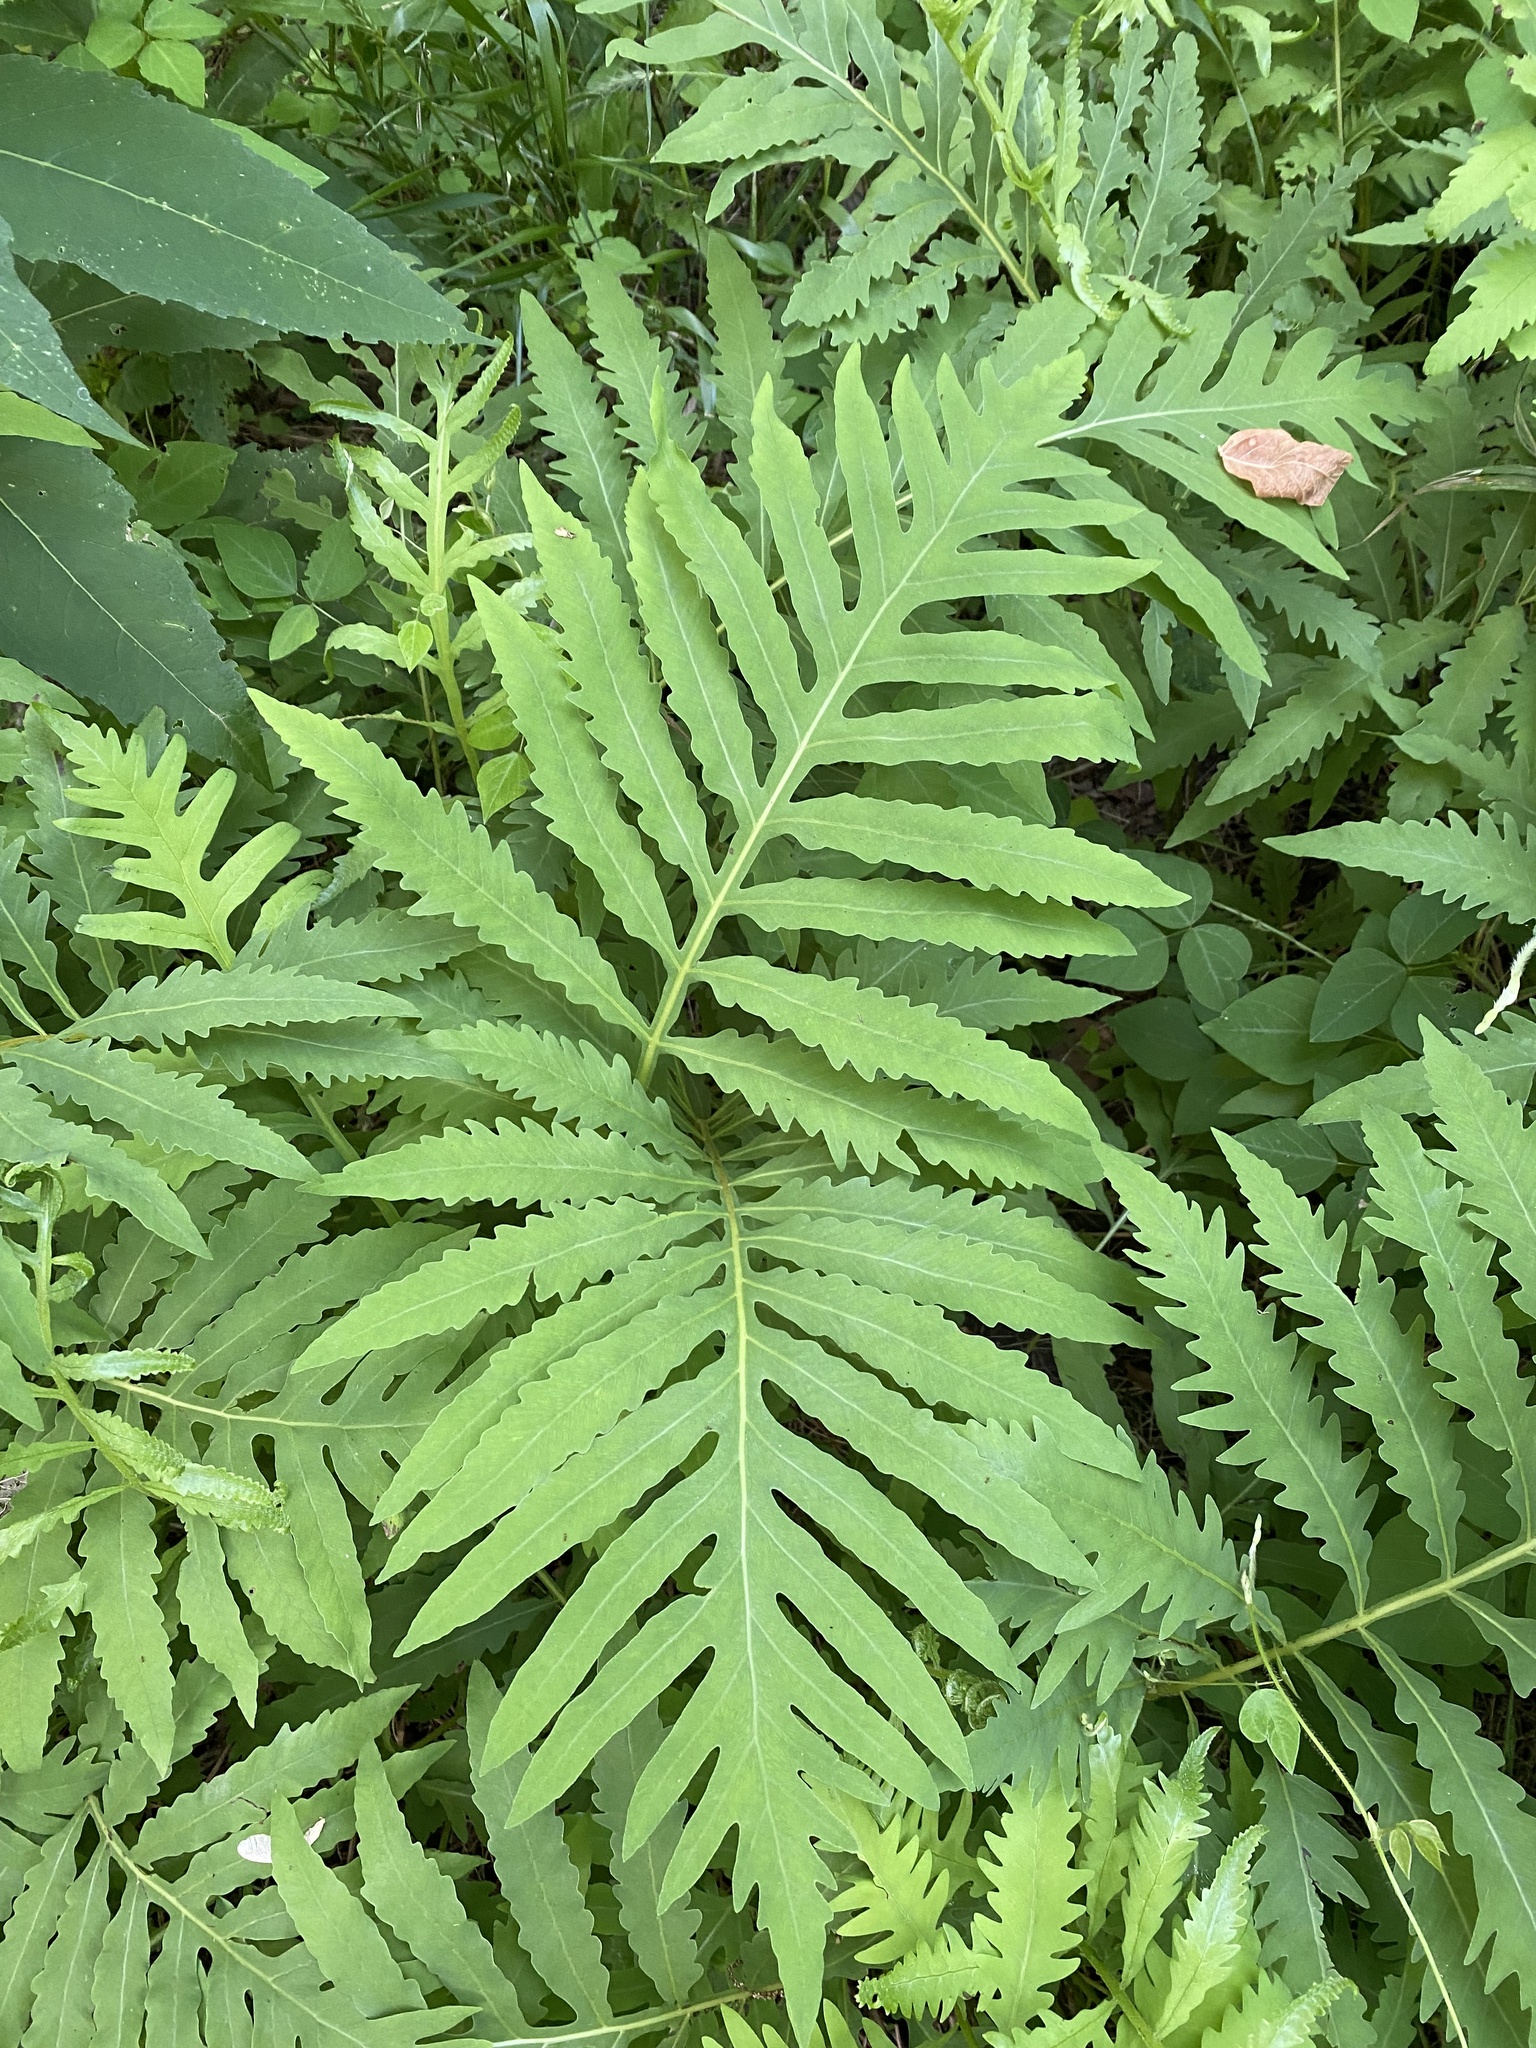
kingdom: Plantae
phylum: Tracheophyta
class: Polypodiopsida
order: Polypodiales
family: Onocleaceae
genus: Onoclea
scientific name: Onoclea sensibilis
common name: Sensitive fern
